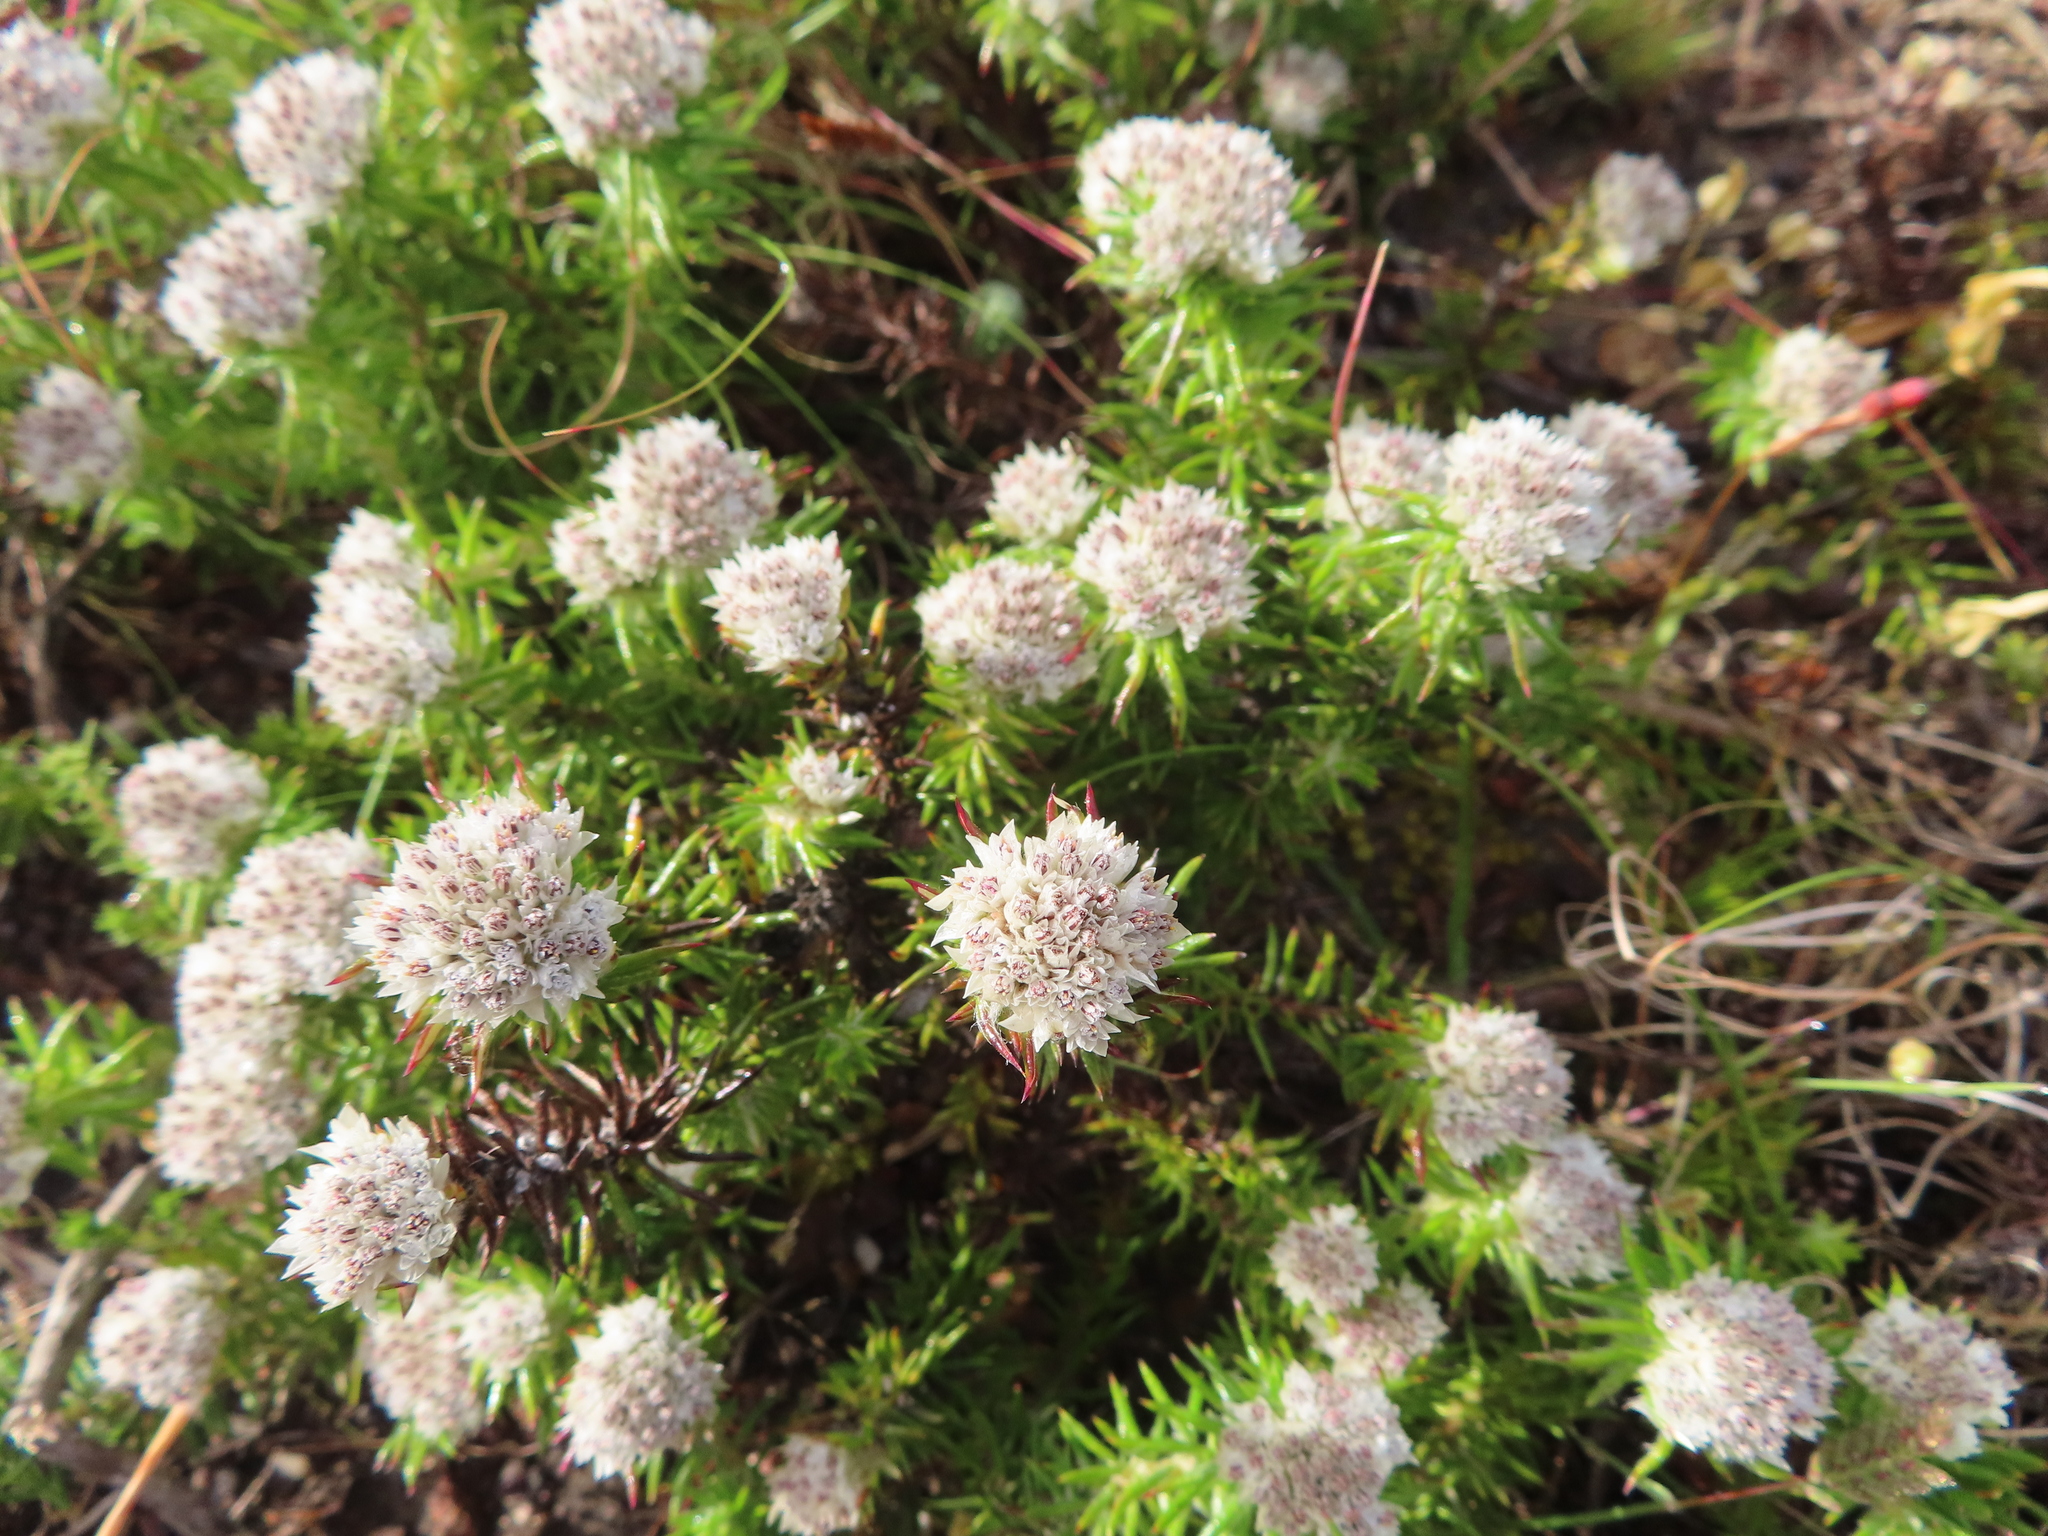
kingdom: Plantae
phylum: Tracheophyta
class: Magnoliopsida
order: Asterales
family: Asteraceae
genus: Metalasia
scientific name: Metalasia inversa
